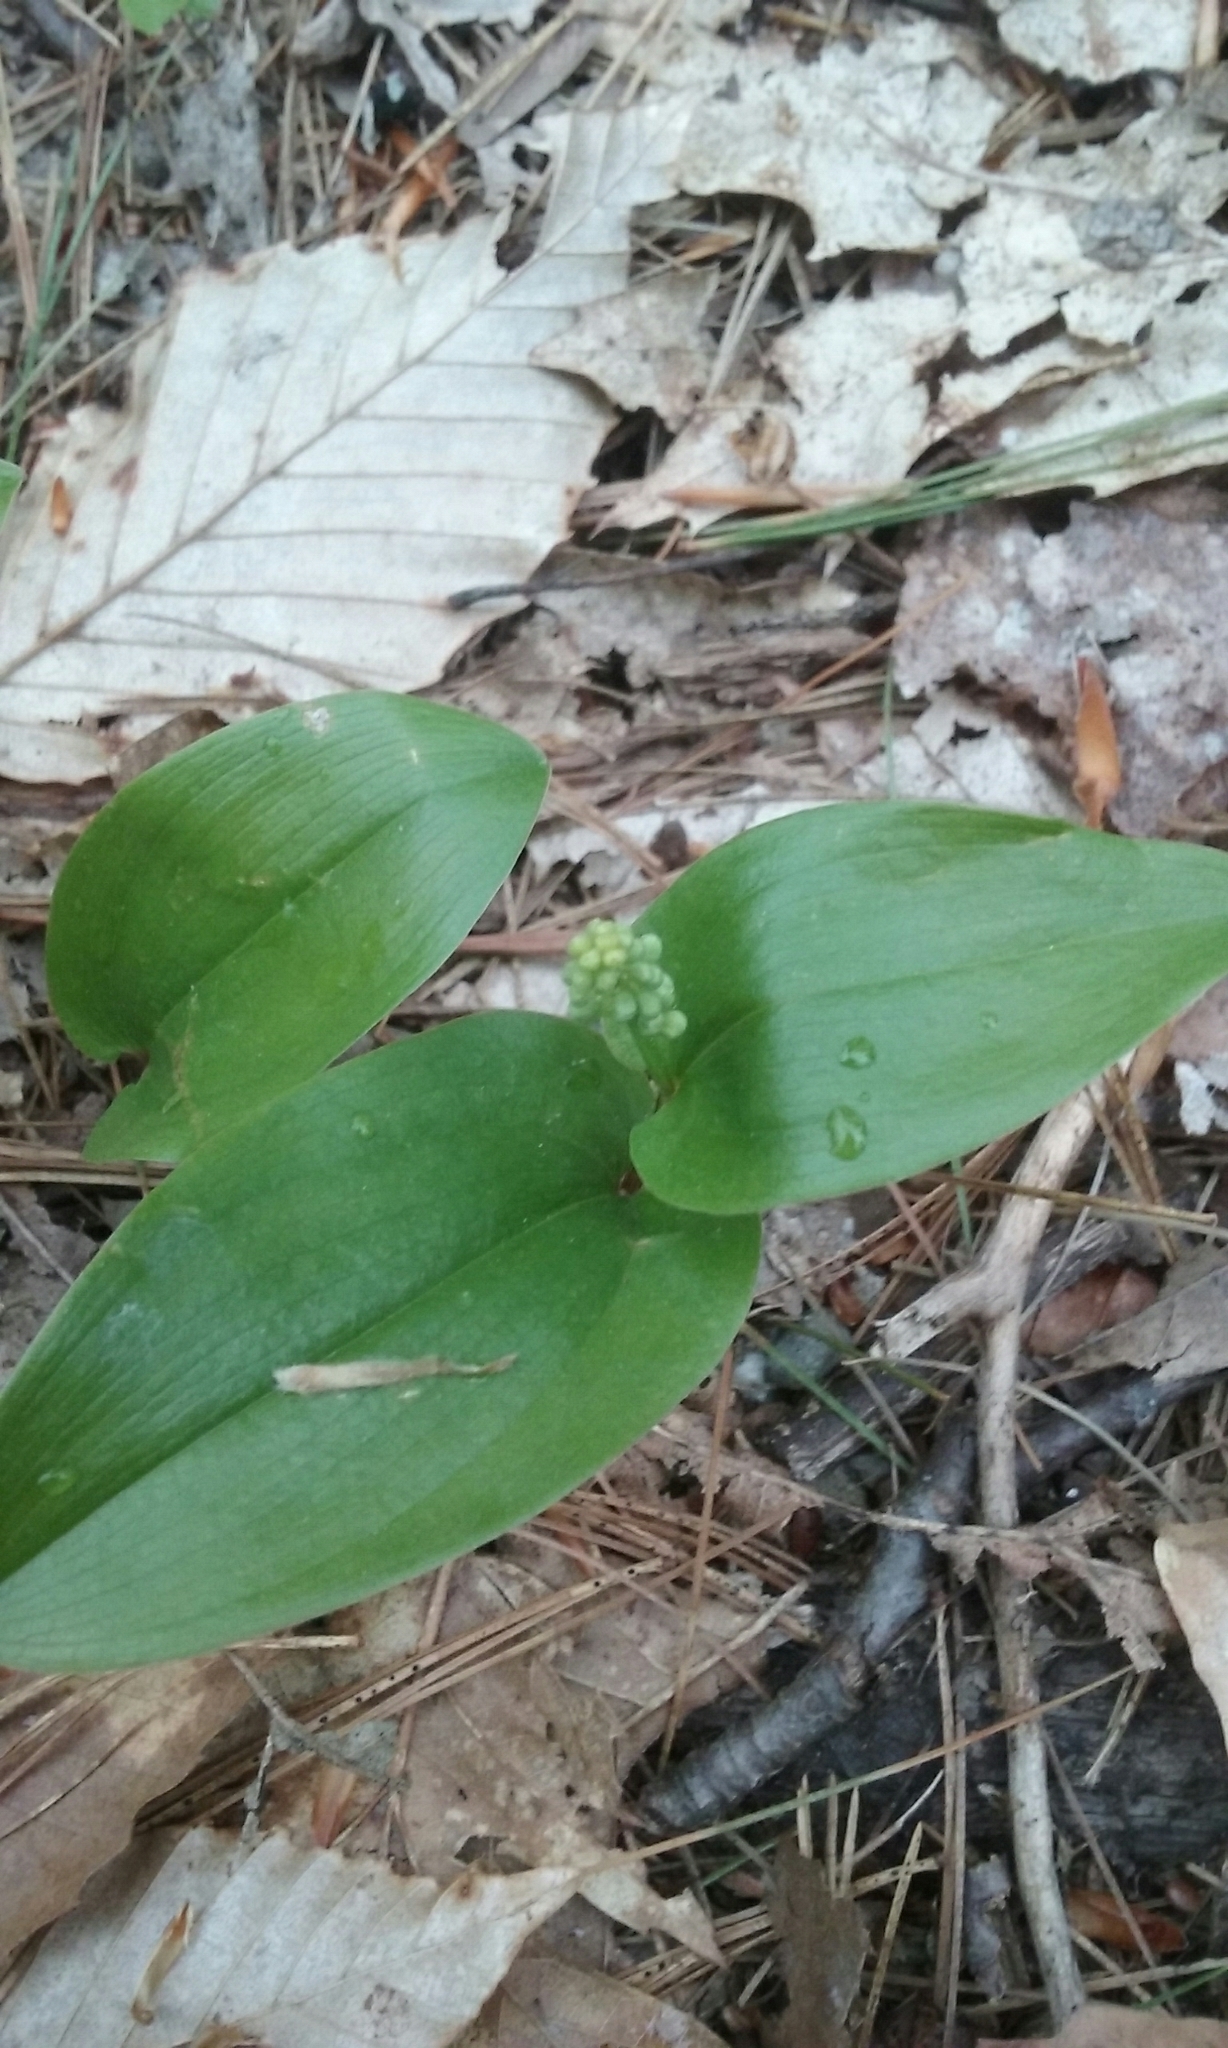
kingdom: Plantae
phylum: Tracheophyta
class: Liliopsida
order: Asparagales
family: Asparagaceae
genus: Maianthemum
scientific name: Maianthemum canadense
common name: False lily-of-the-valley
